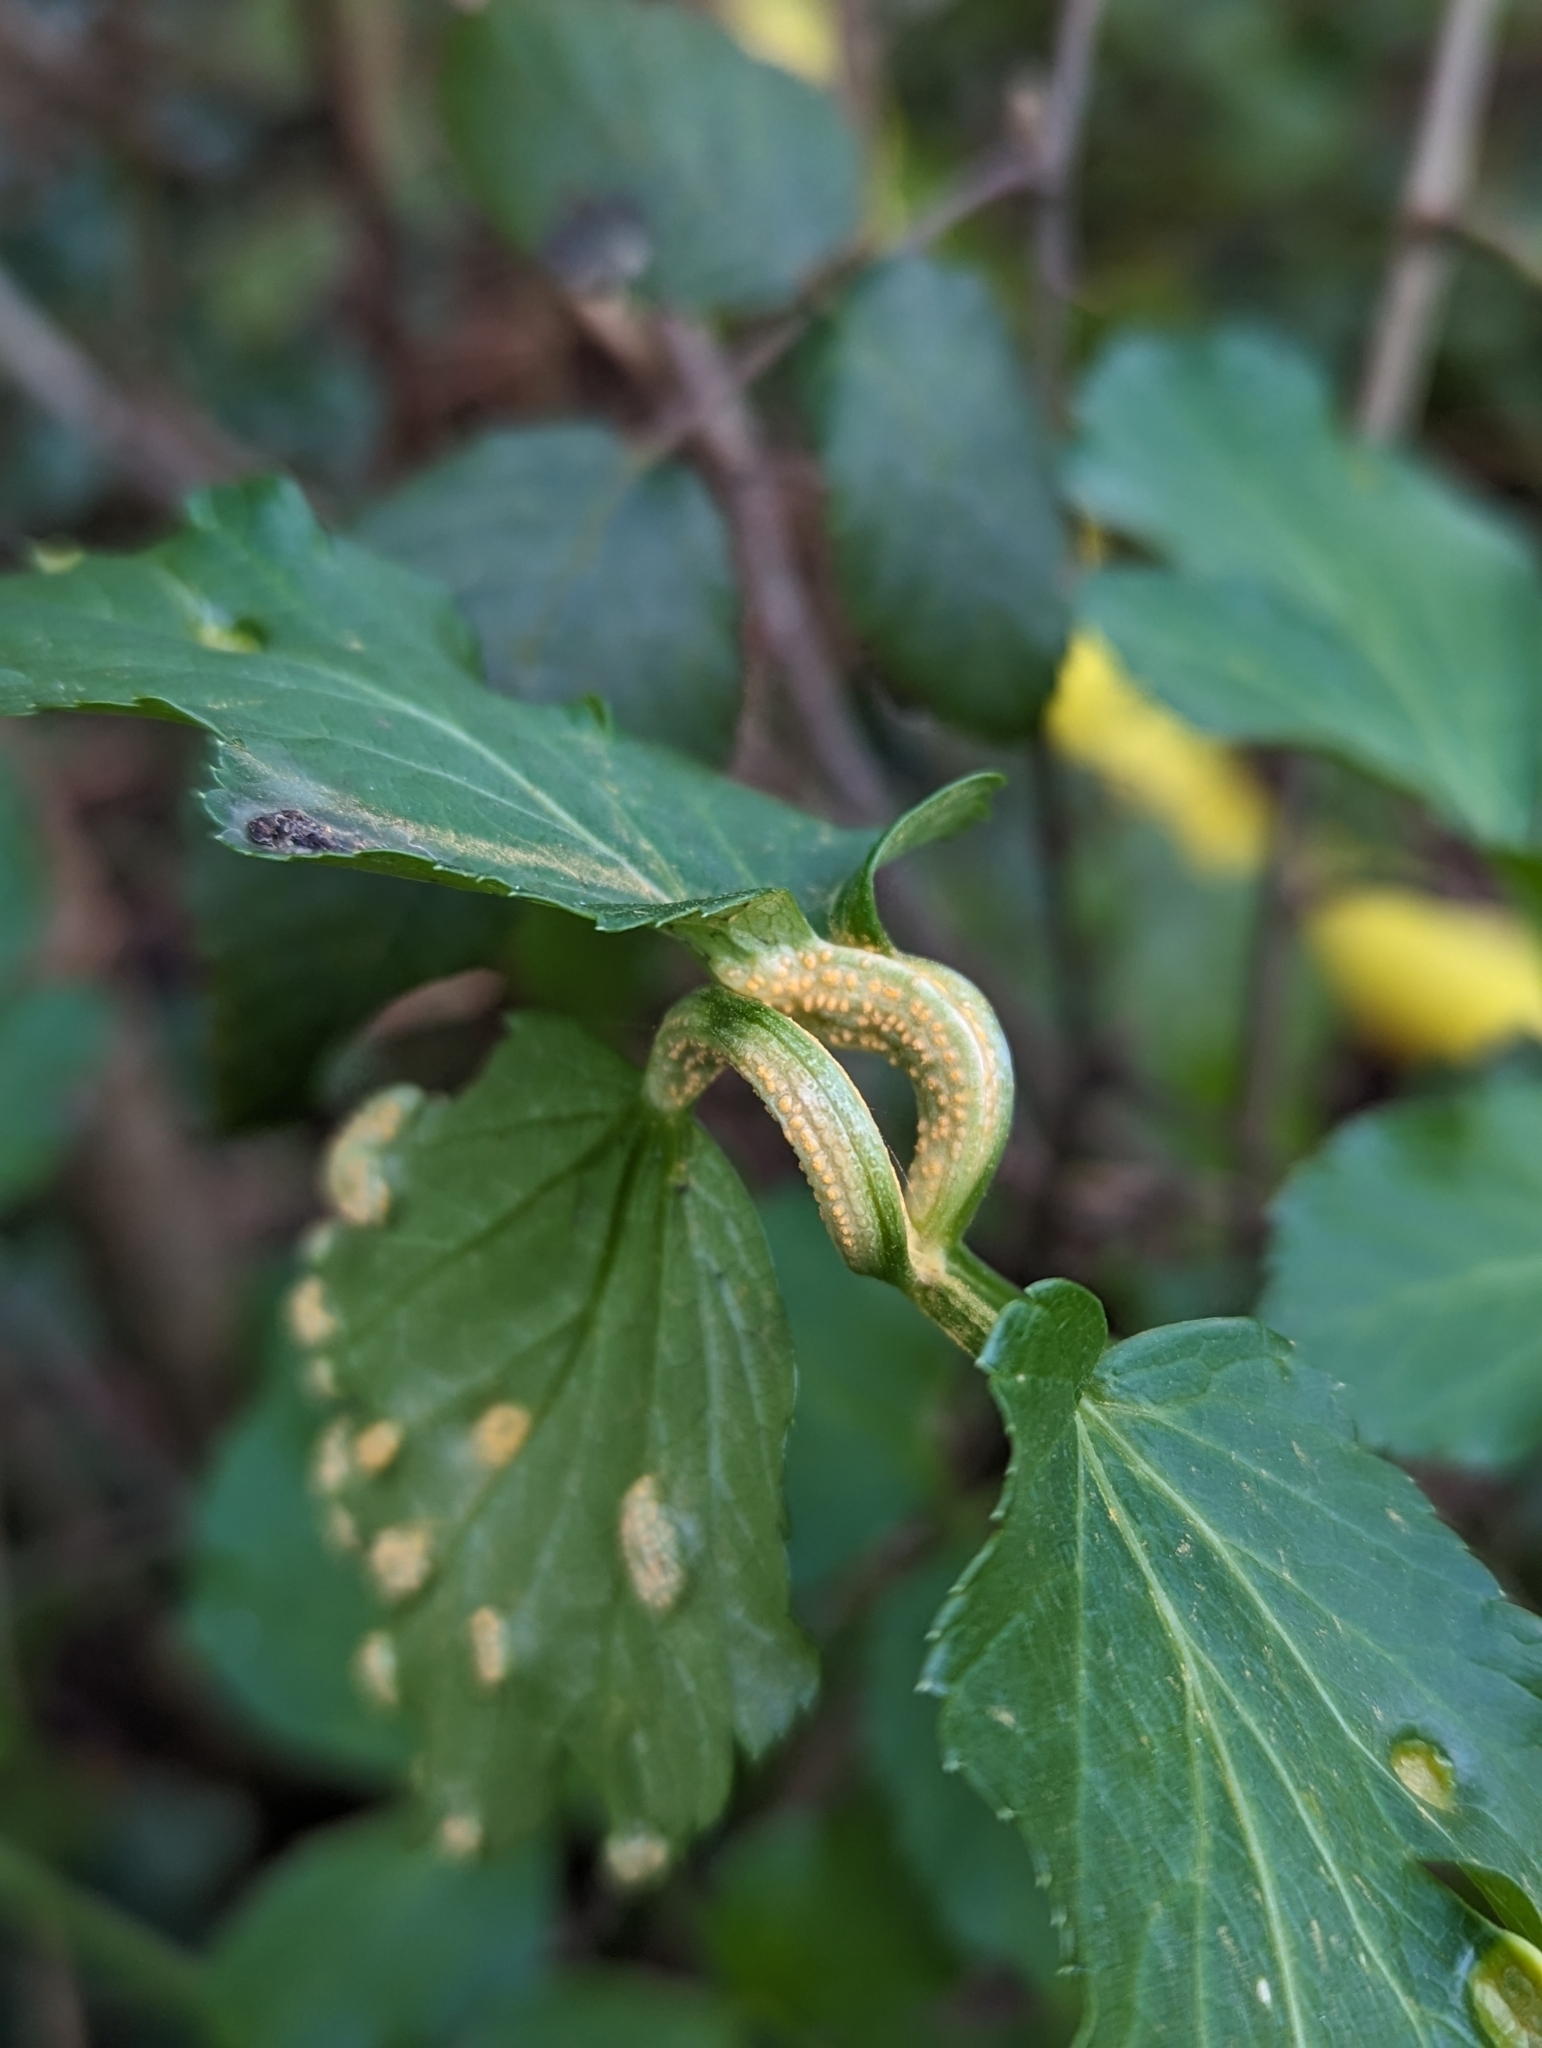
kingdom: Fungi
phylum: Basidiomycota
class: Pucciniomycetes
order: Pucciniales
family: Pucciniaceae
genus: Puccinia
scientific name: Puccinia smyrnii
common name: Alexanders rust
